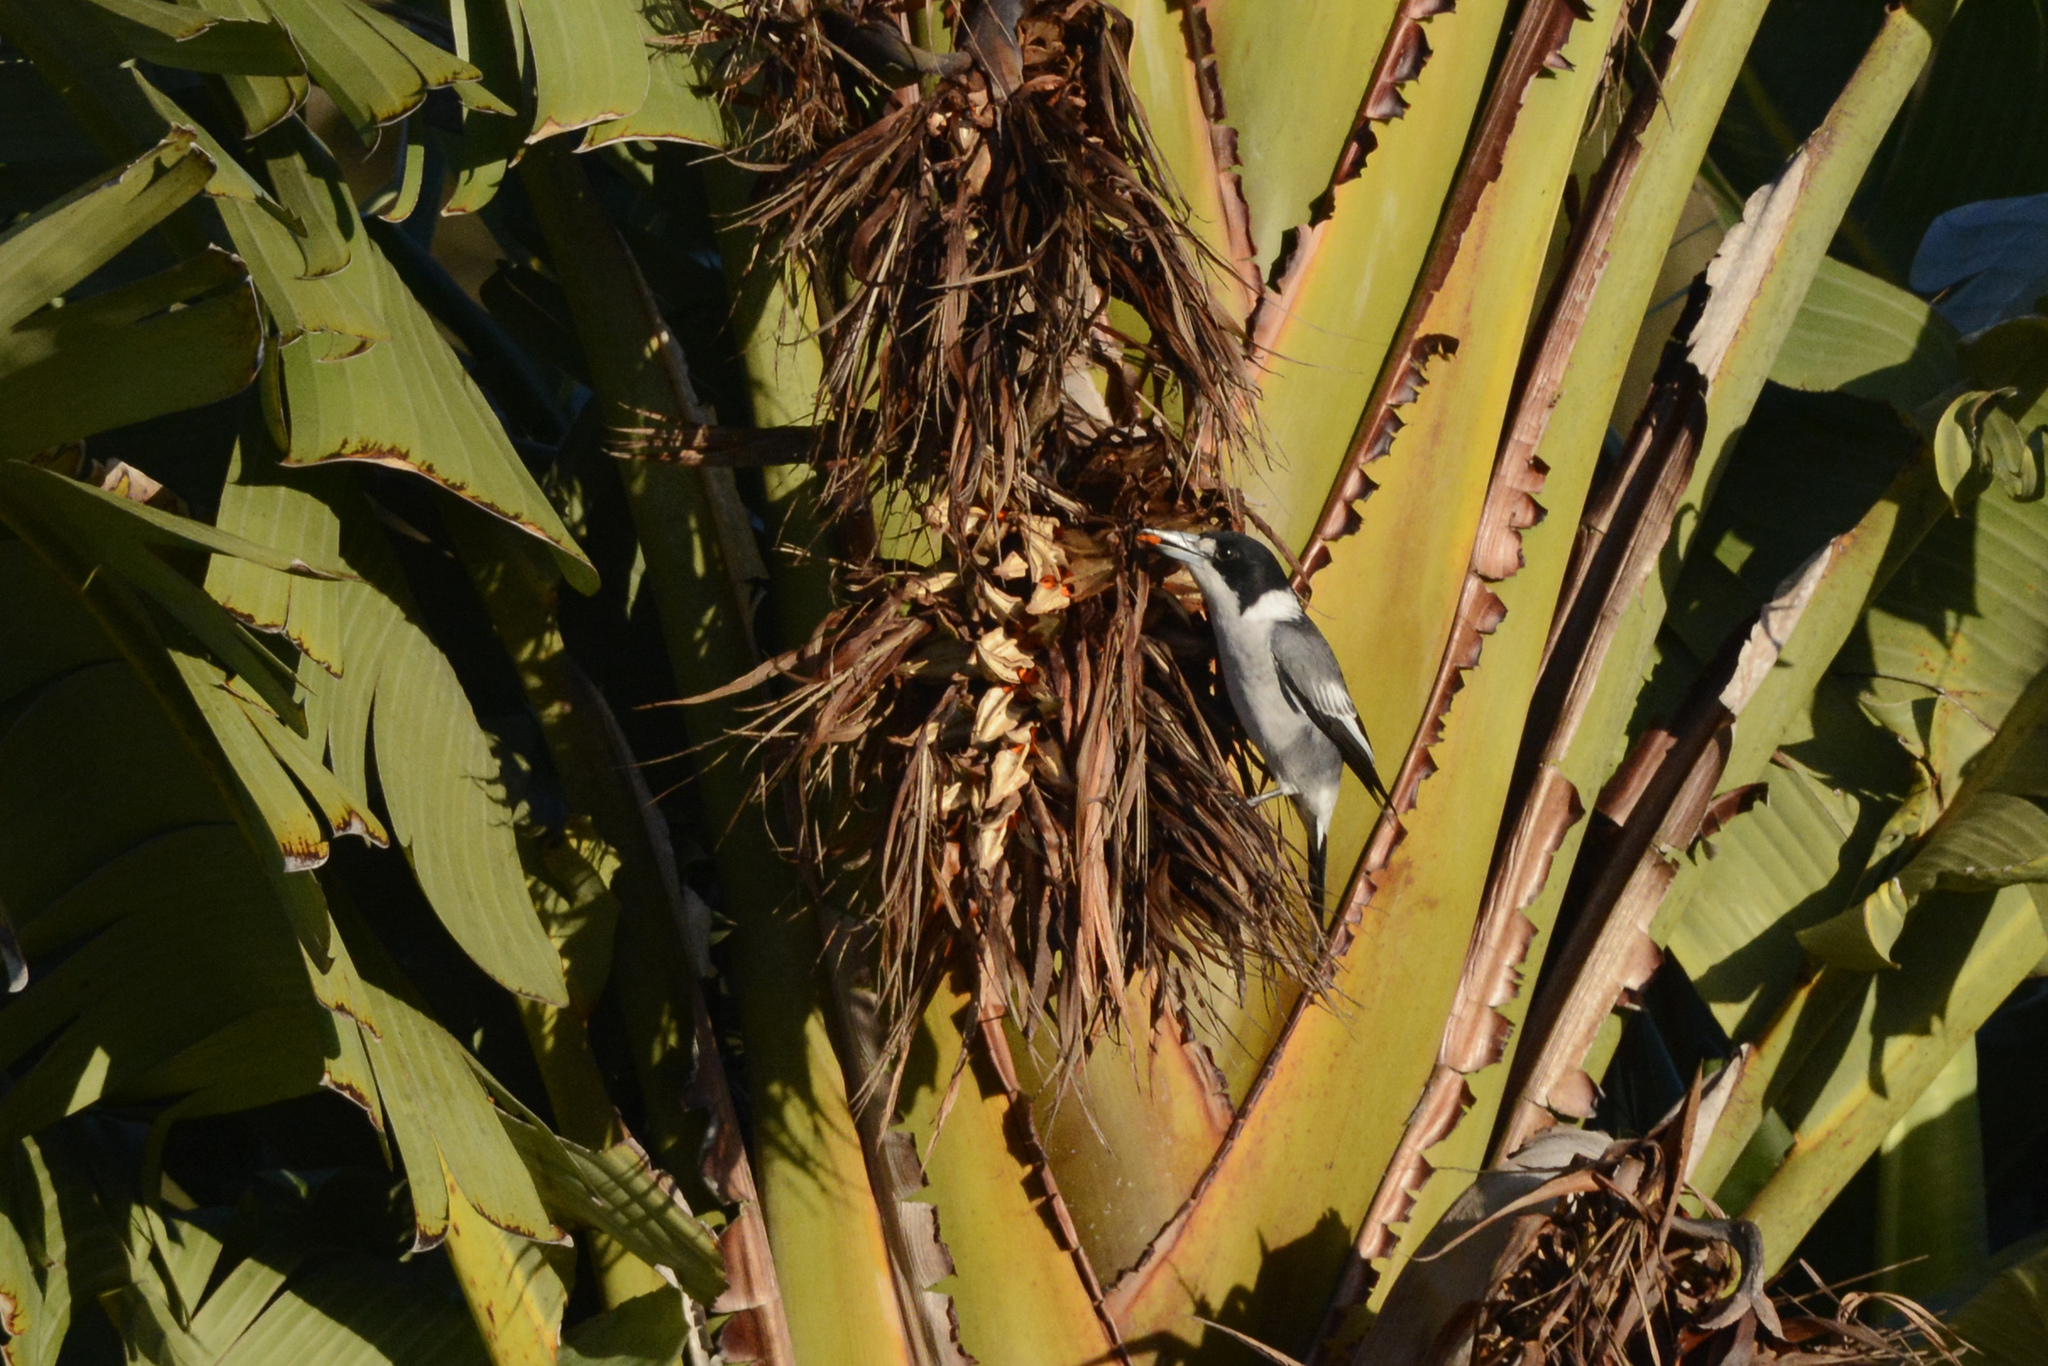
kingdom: Animalia
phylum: Chordata
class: Aves
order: Passeriformes
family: Cracticidae
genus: Cracticus
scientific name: Cracticus torquatus
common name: Grey butcherbird
